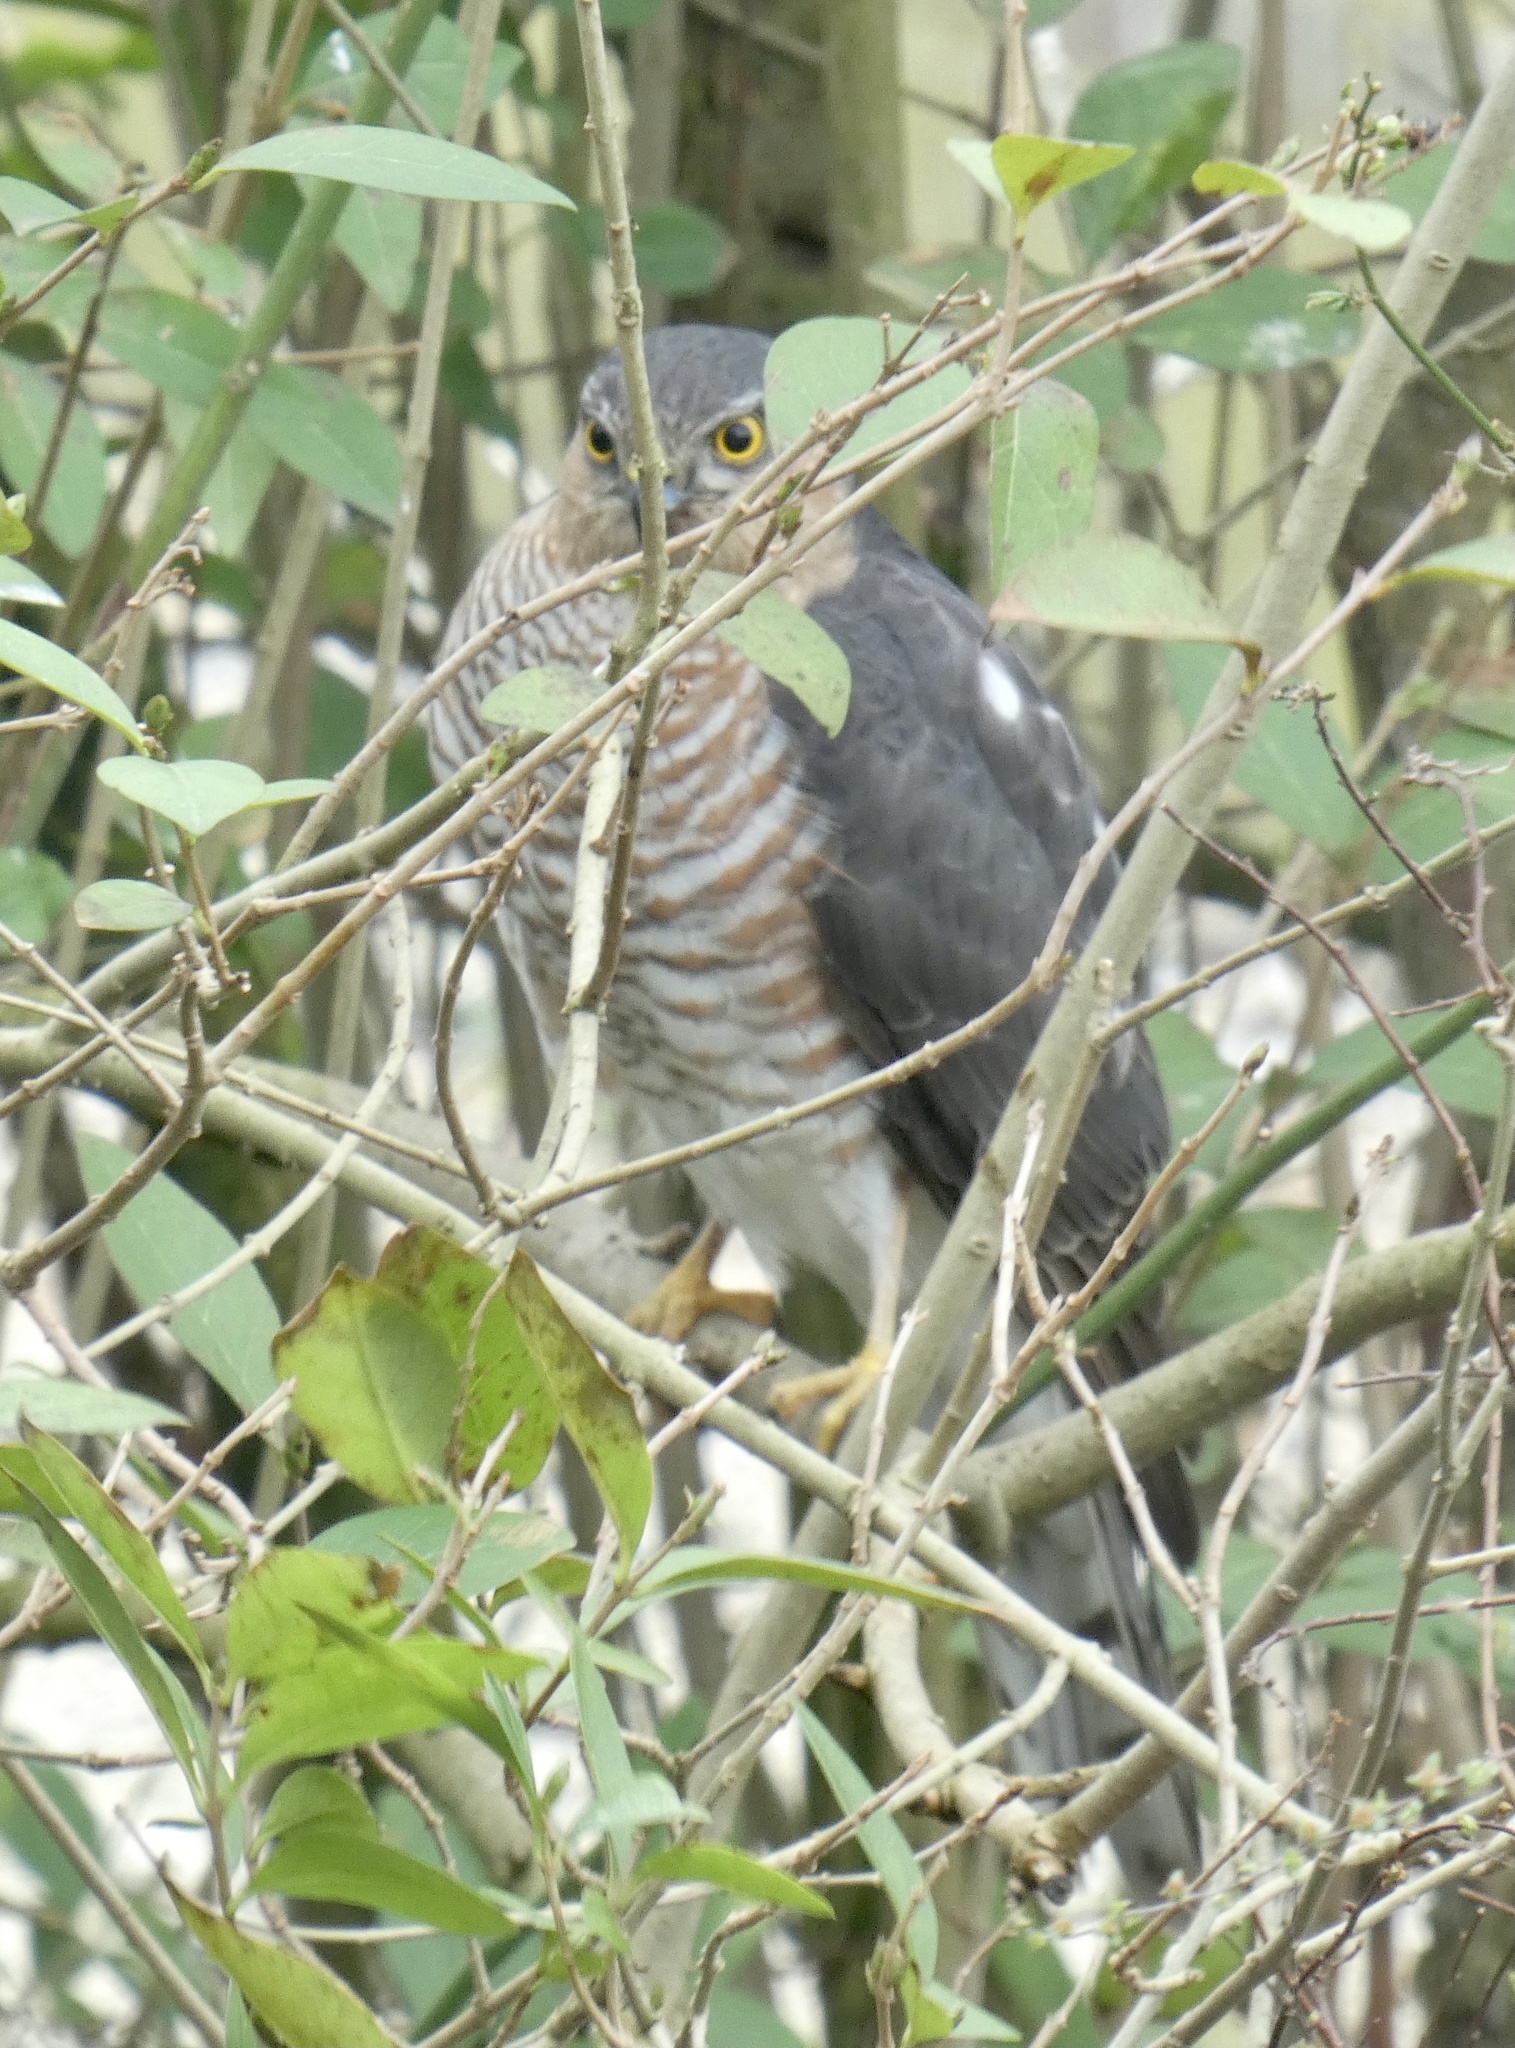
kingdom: Animalia
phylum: Chordata
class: Aves
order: Accipitriformes
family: Accipitridae
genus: Accipiter
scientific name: Accipiter nisus
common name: Eurasian sparrowhawk
